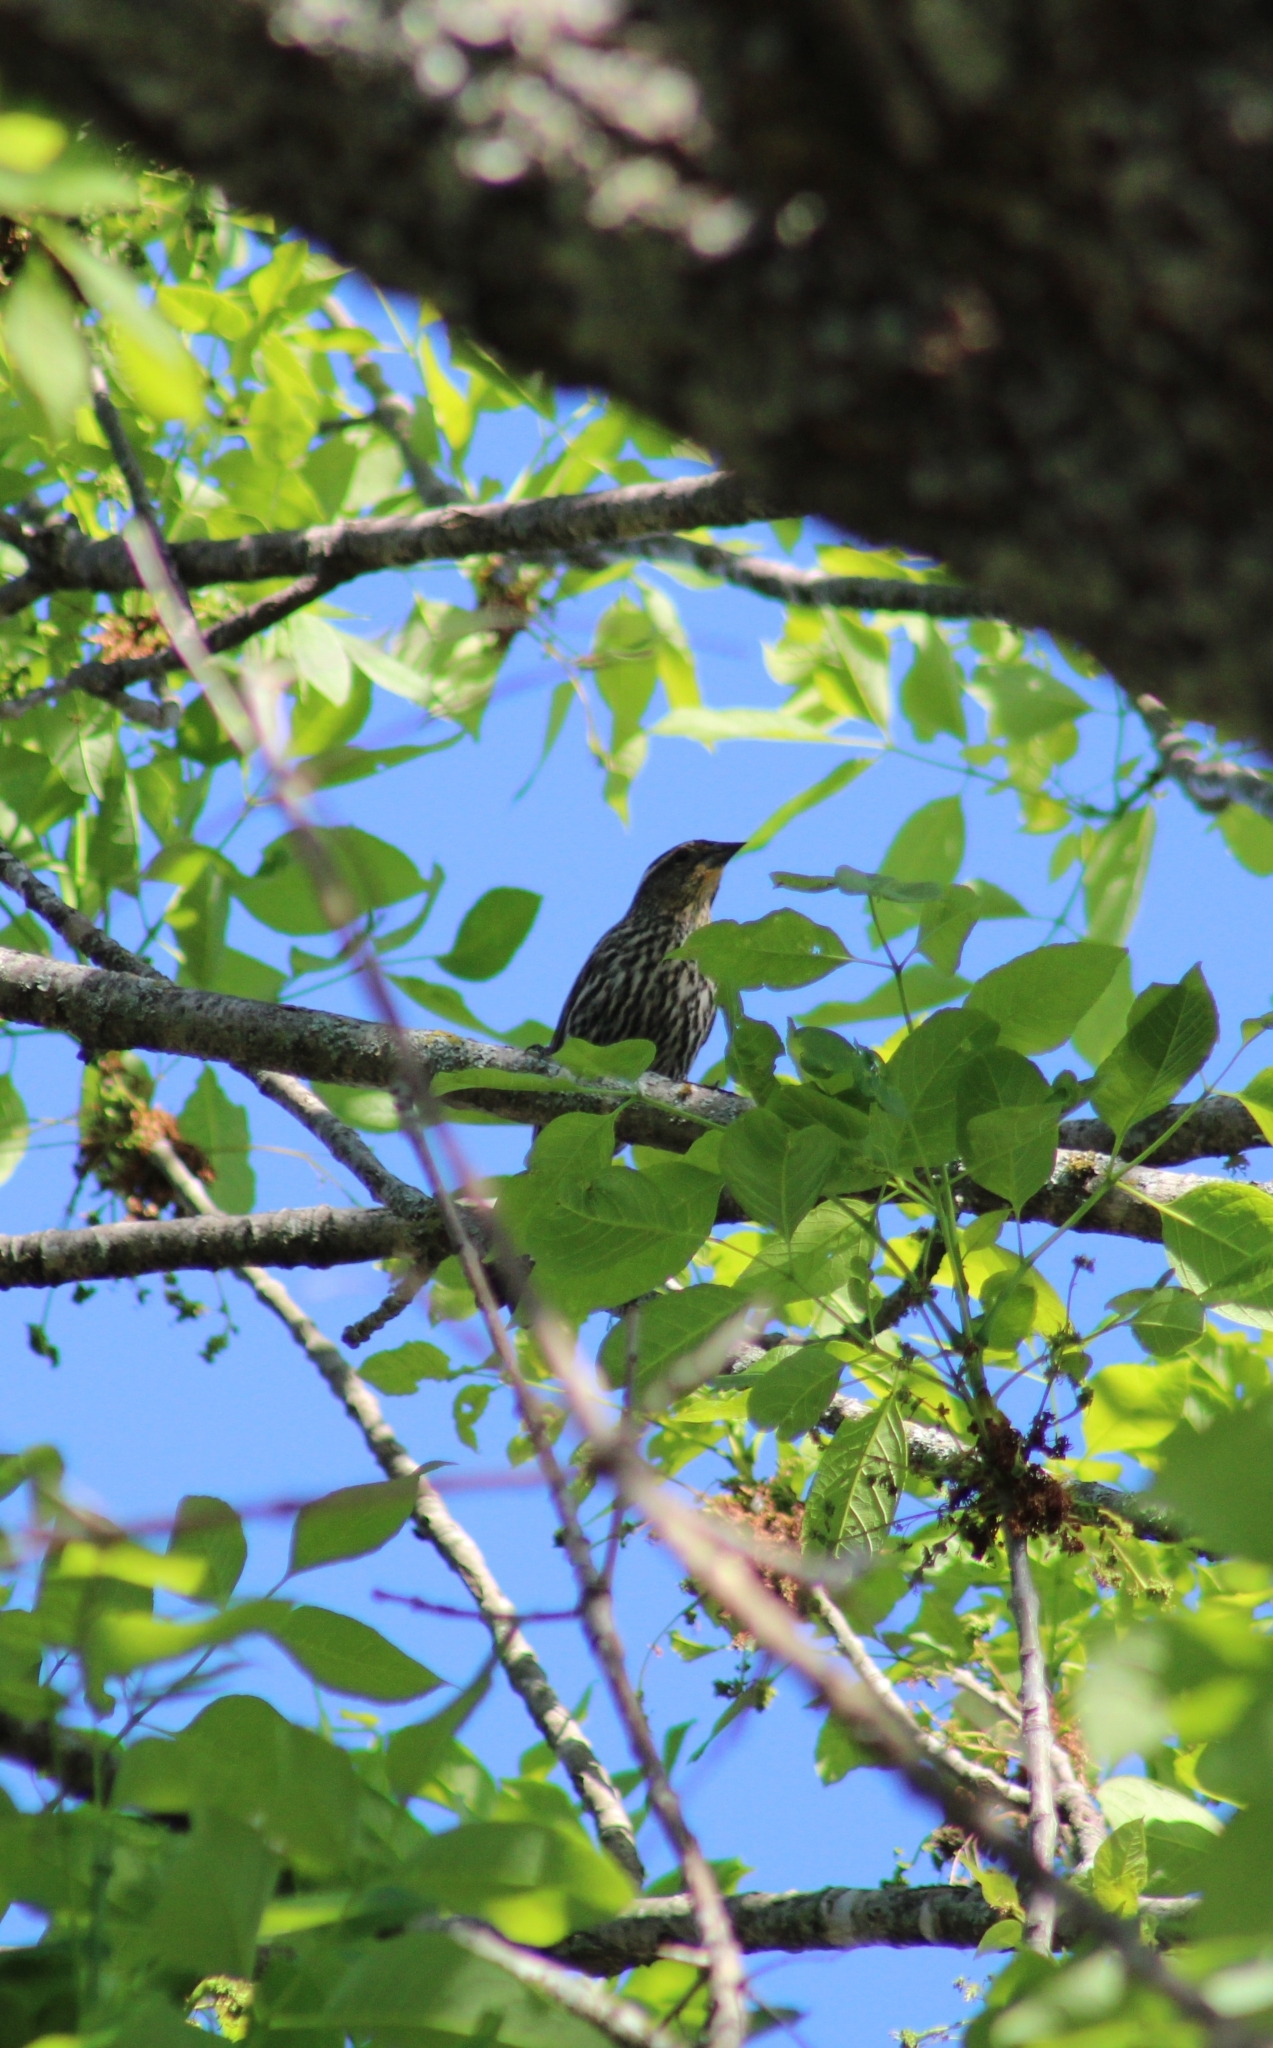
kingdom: Animalia
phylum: Chordata
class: Aves
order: Passeriformes
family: Icteridae
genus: Agelaius
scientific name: Agelaius phoeniceus
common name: Red-winged blackbird
